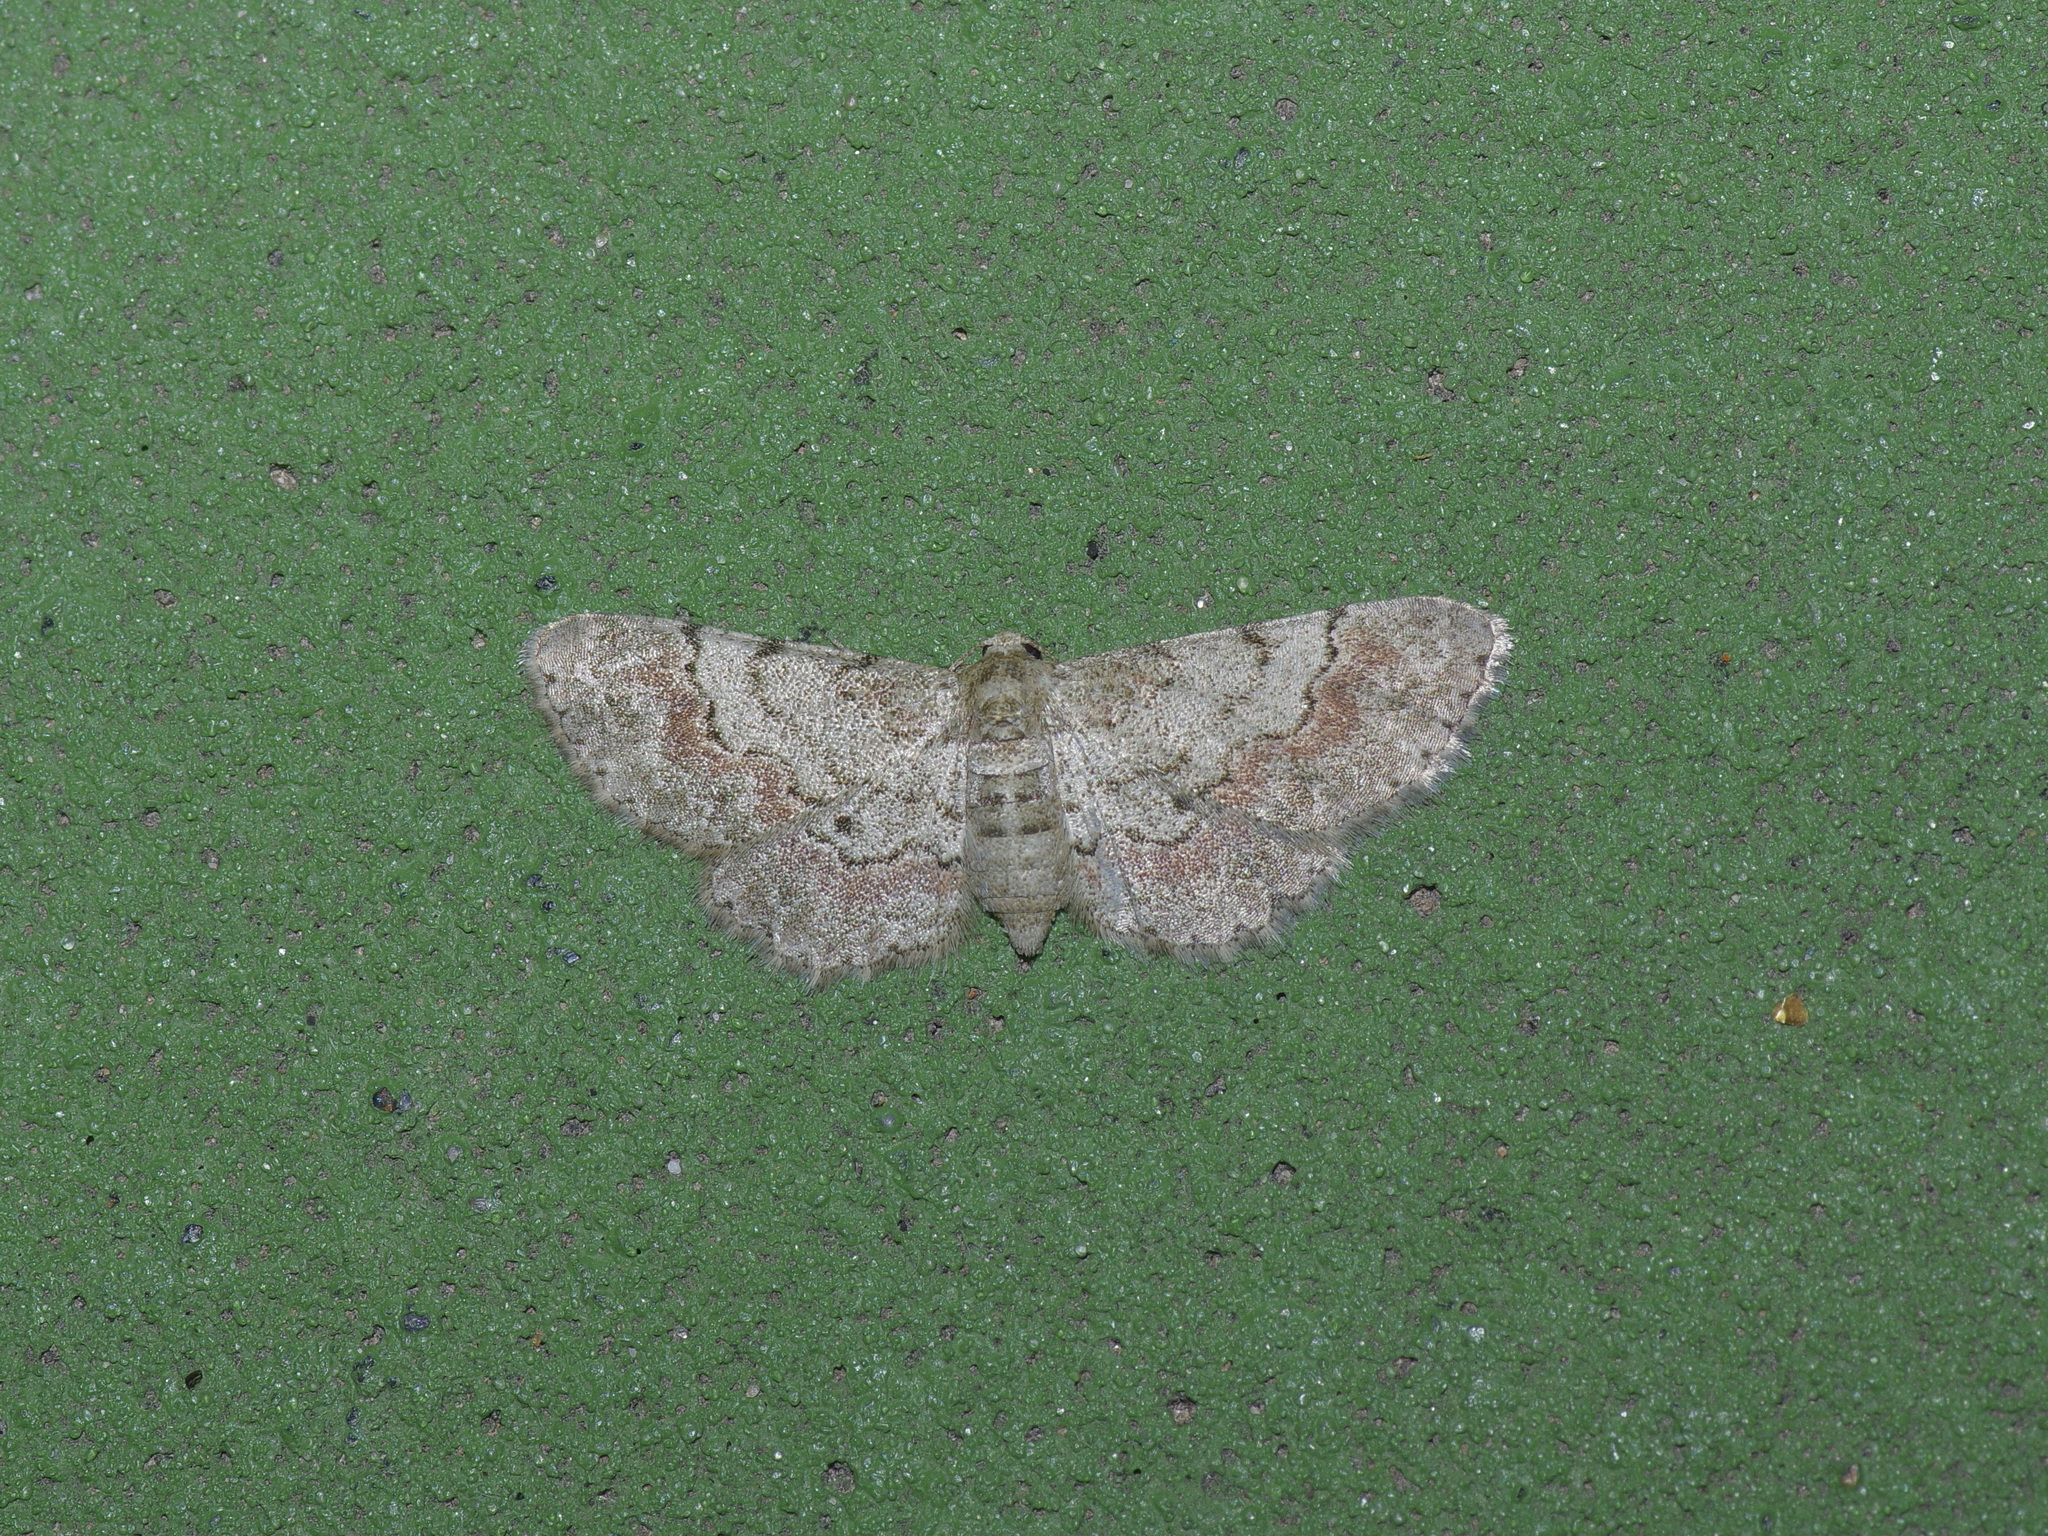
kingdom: Animalia
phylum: Arthropoda
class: Insecta
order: Lepidoptera
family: Geometridae
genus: Glenoides
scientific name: Glenoides texanaria
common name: Texas gray
